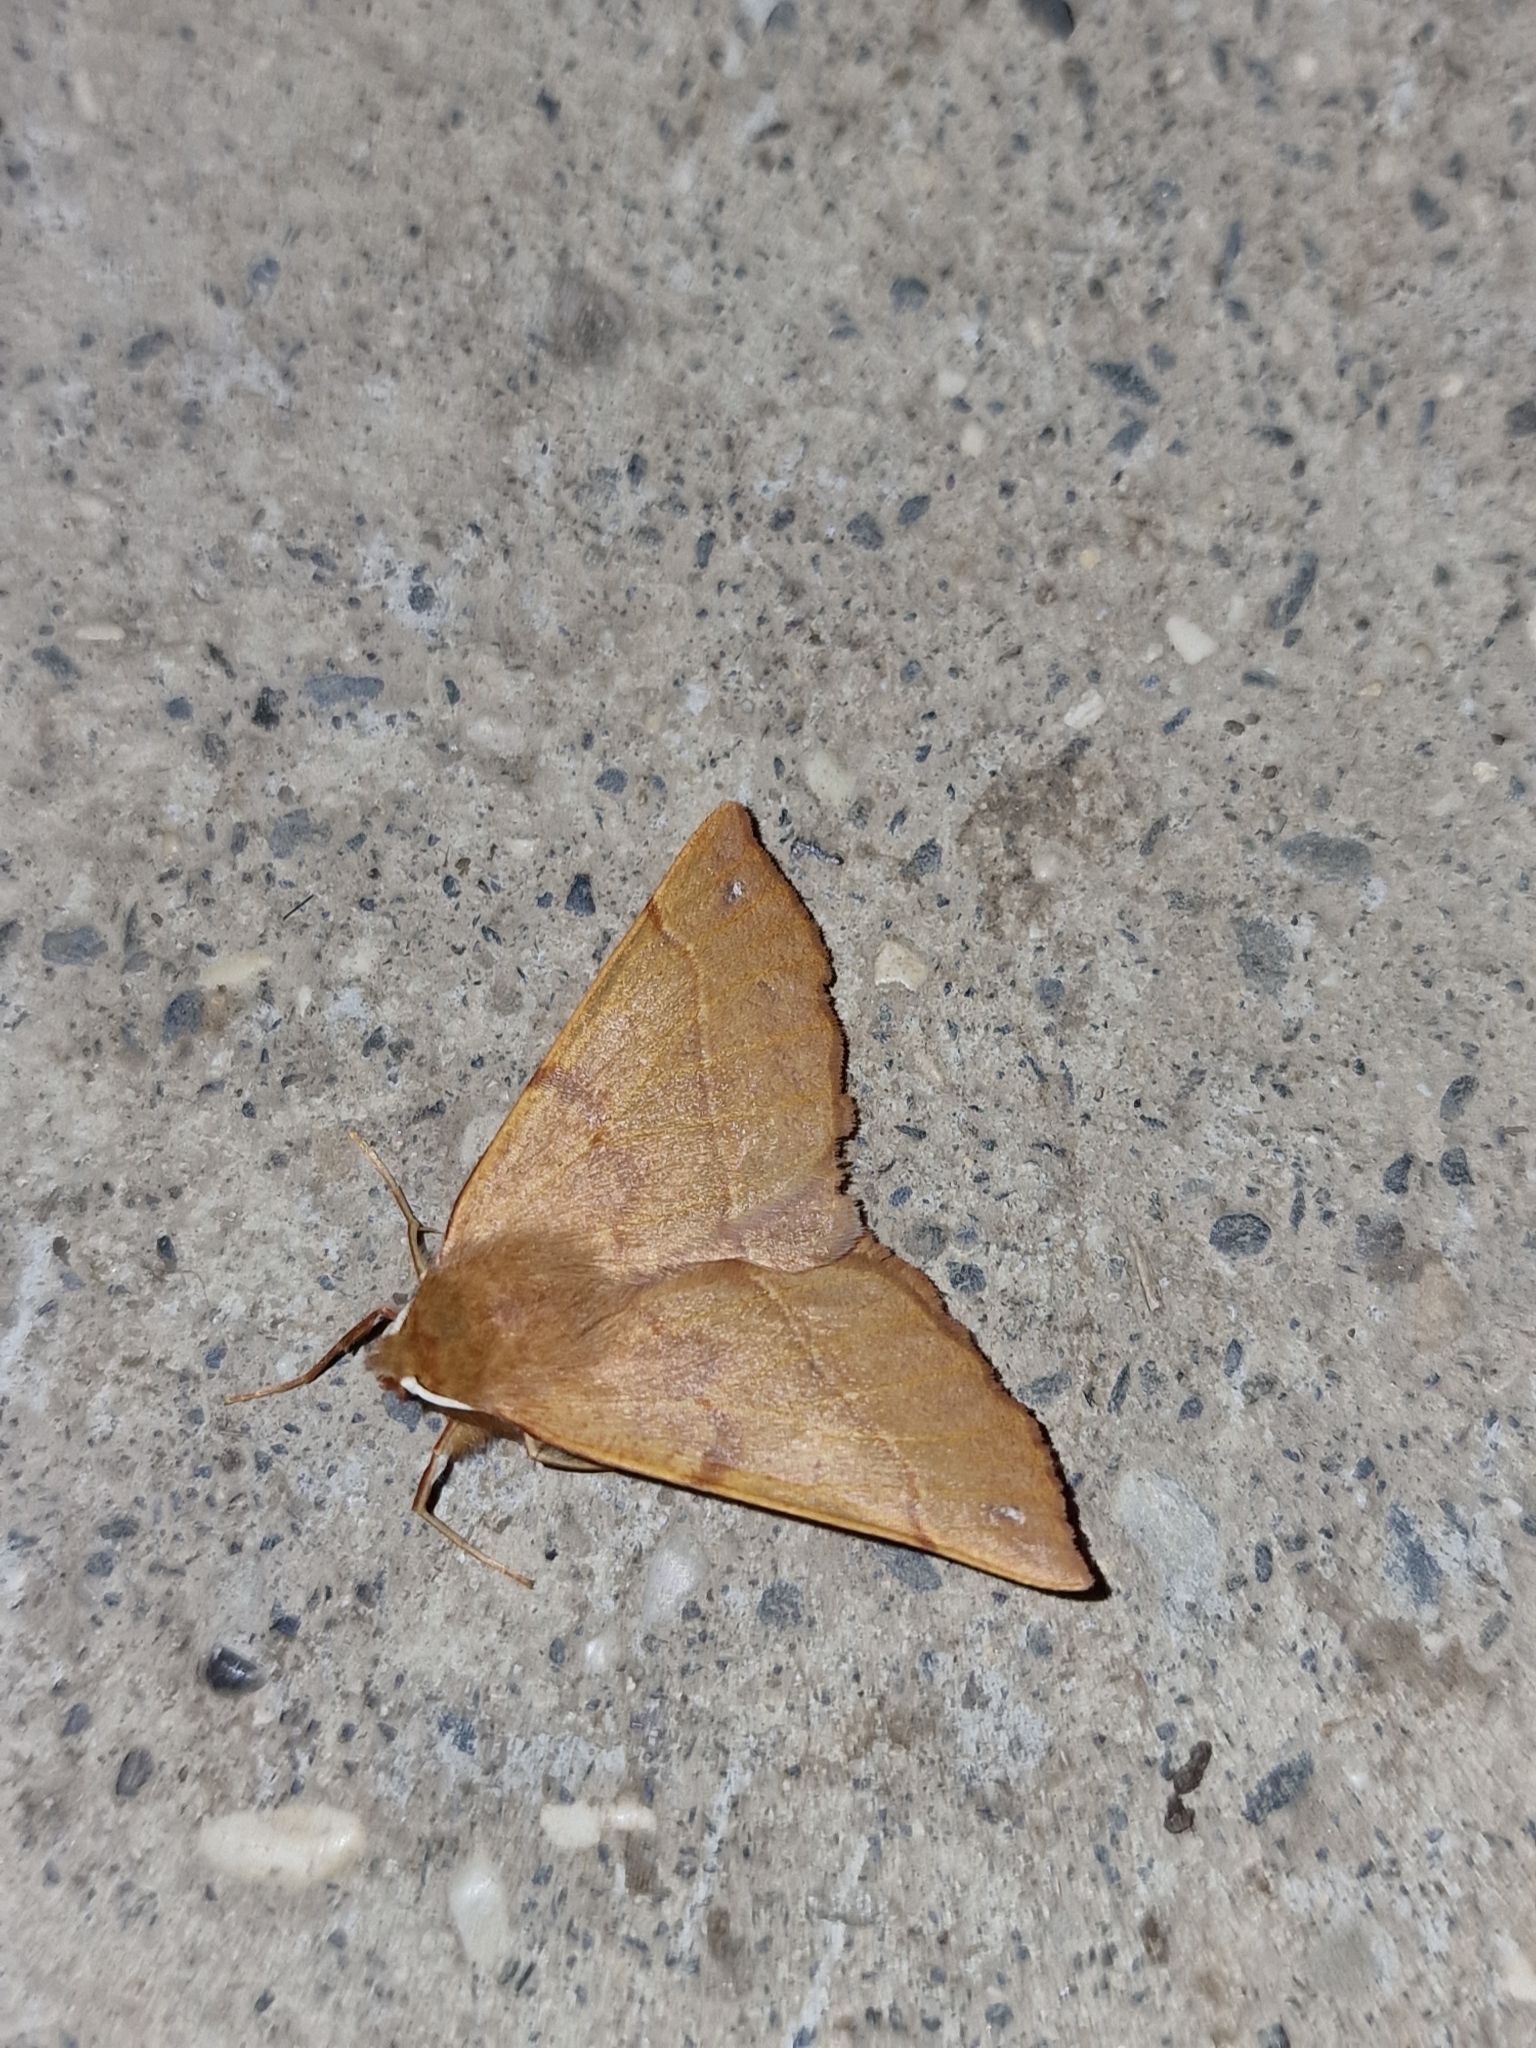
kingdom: Animalia
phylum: Arthropoda
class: Insecta
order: Lepidoptera
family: Geometridae
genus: Colotois
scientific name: Colotois pennaria
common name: Feathered thorn
